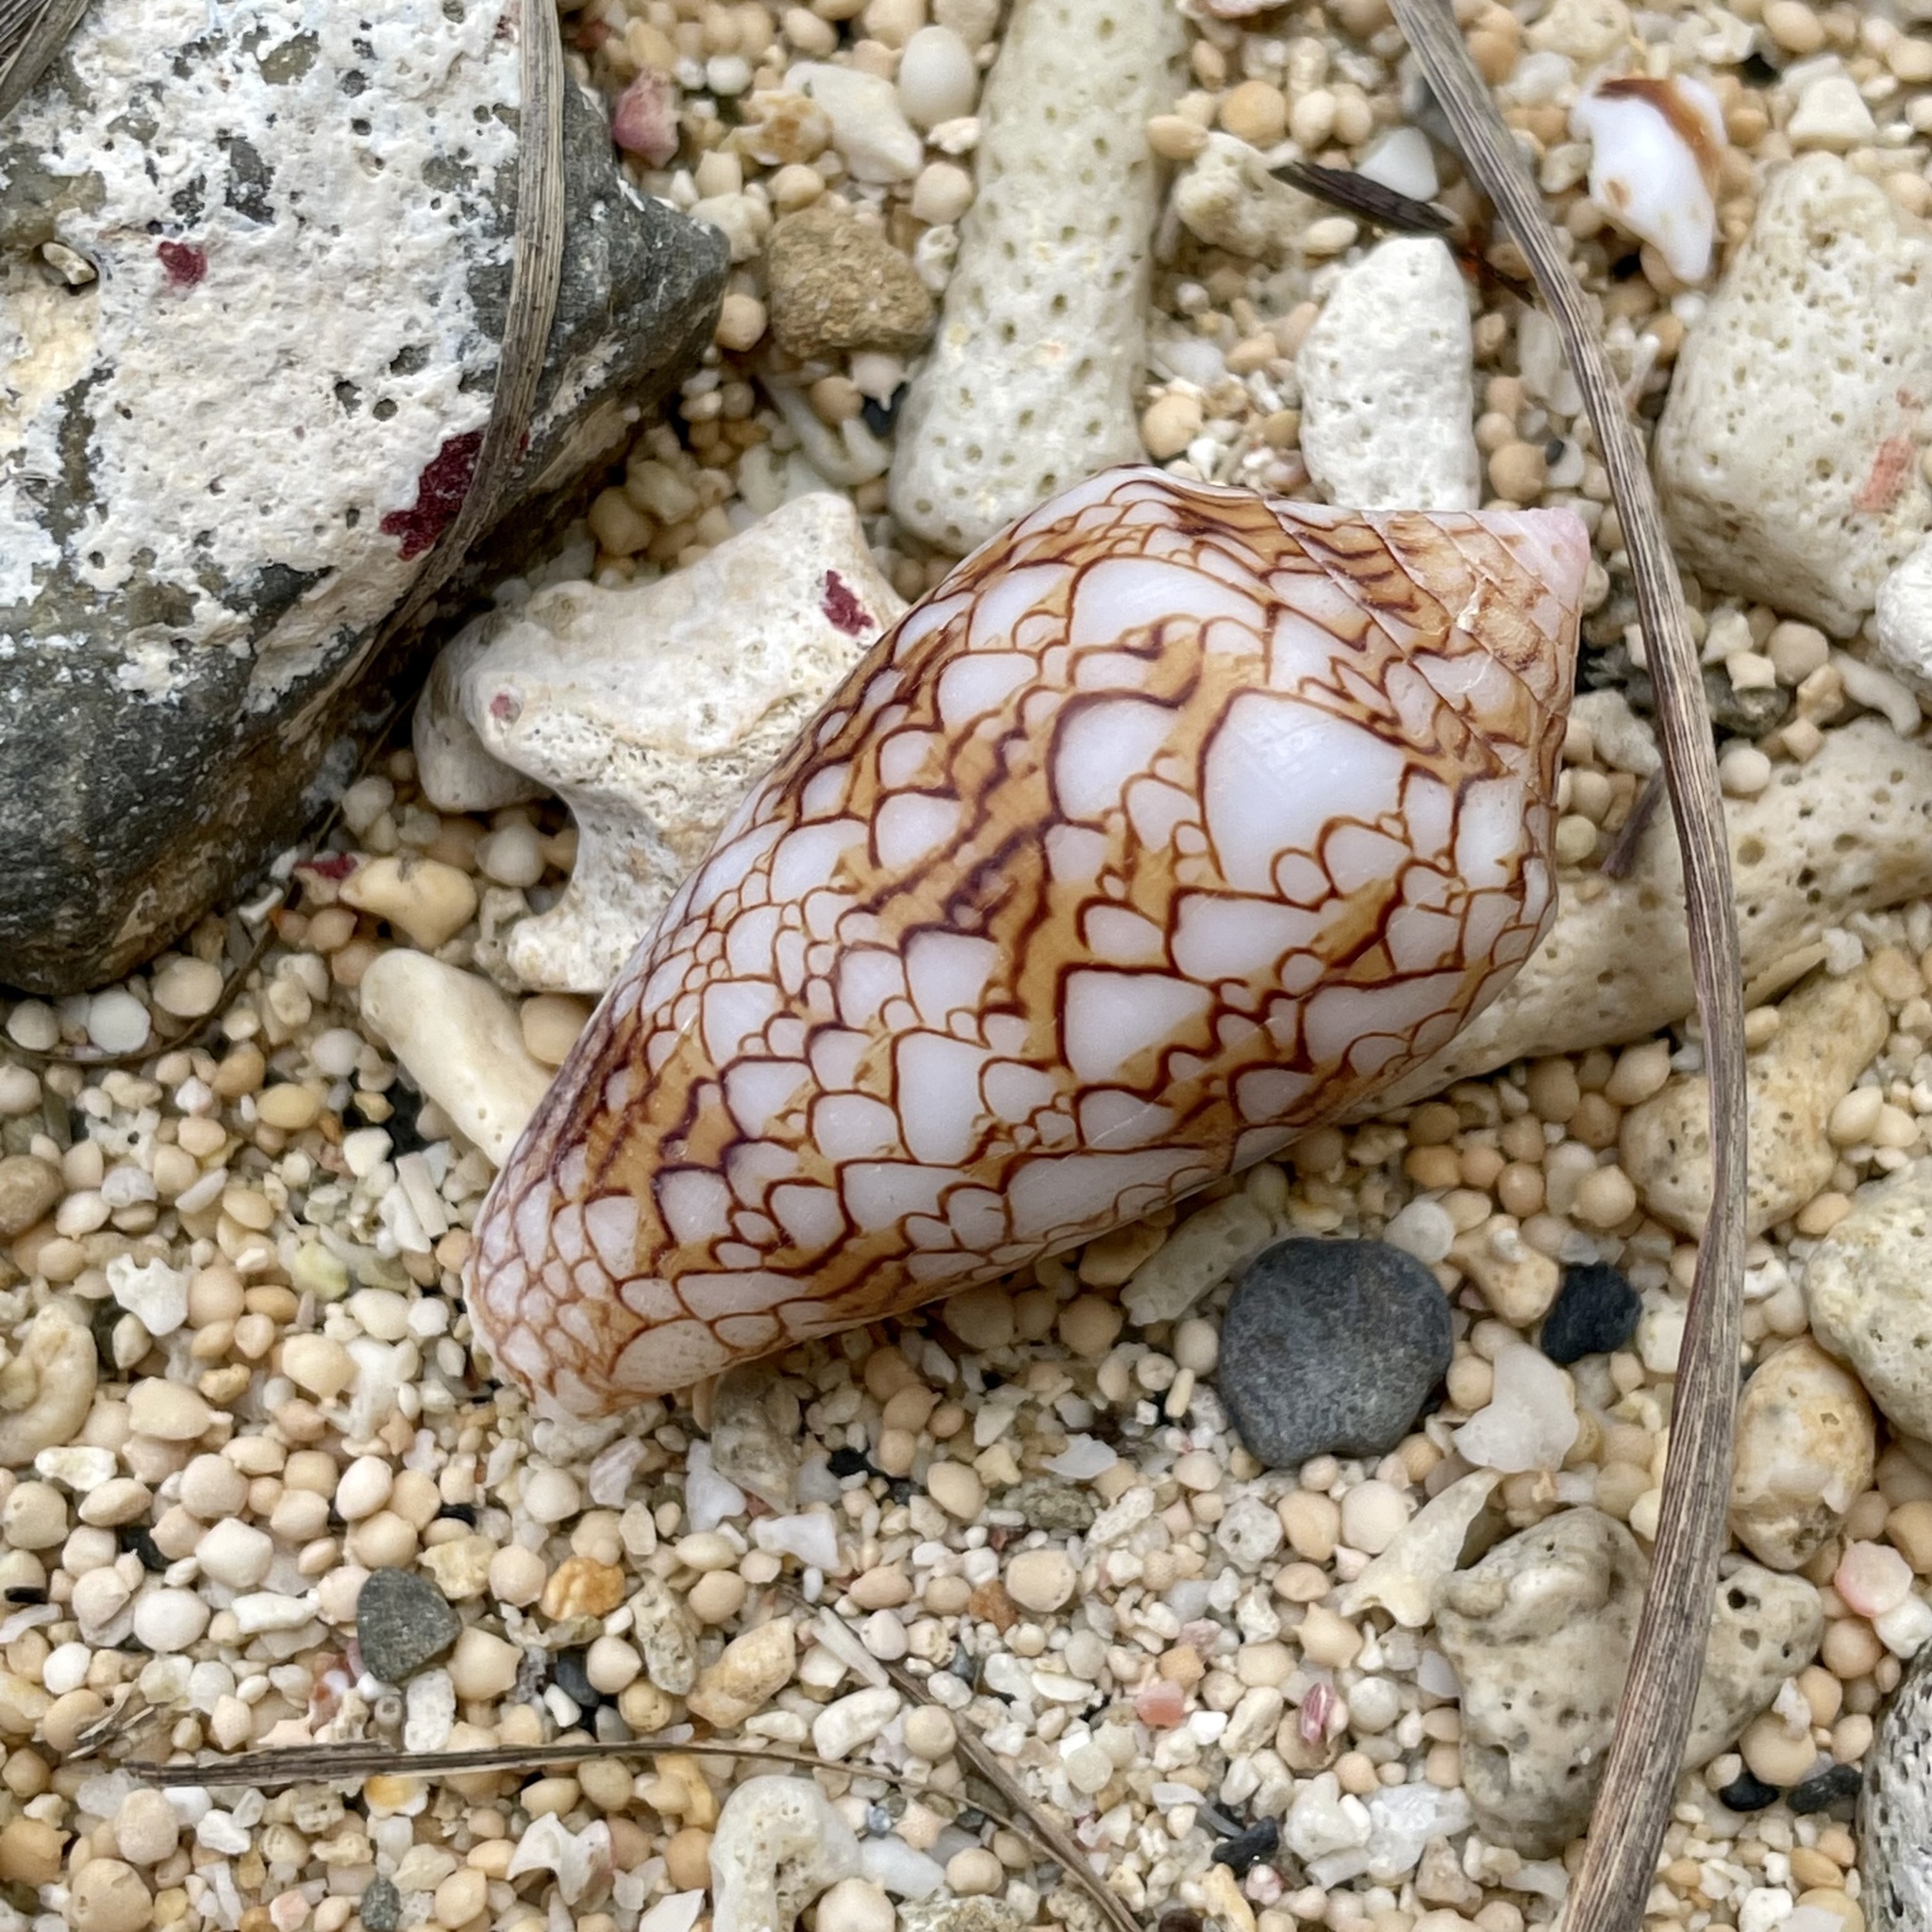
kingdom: Animalia
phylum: Mollusca
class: Gastropoda
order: Neogastropoda
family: Conidae
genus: Conus
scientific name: Conus textile
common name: Cloth-of-gold cone
